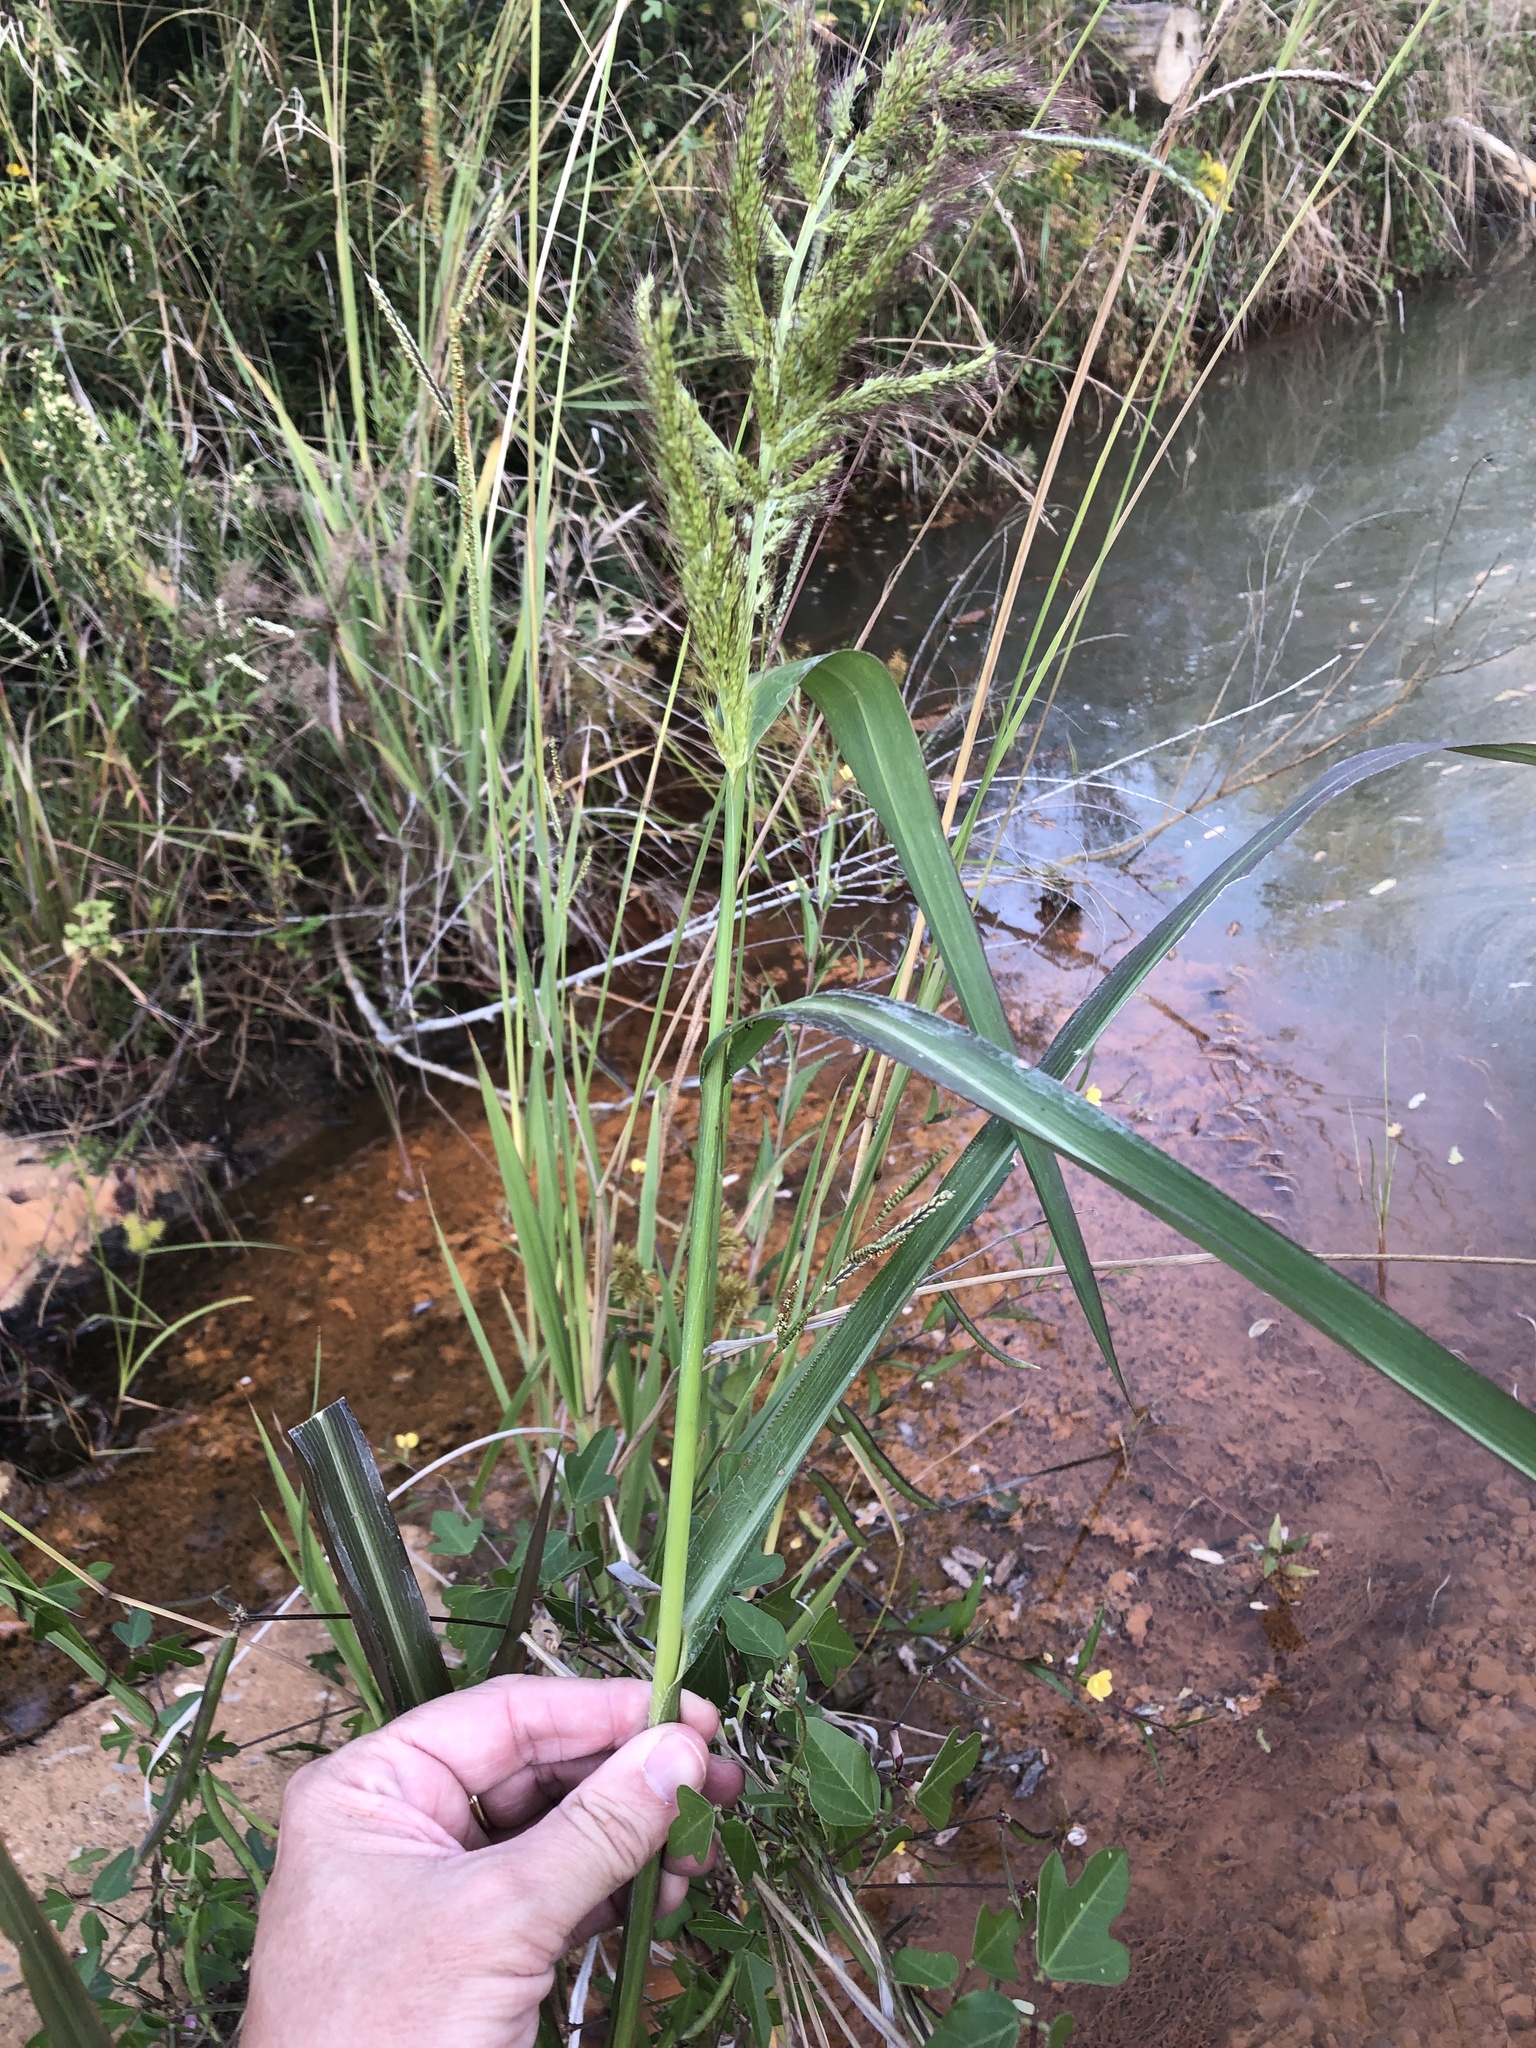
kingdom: Plantae
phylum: Tracheophyta
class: Liliopsida
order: Poales
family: Poaceae
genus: Echinochloa
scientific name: Echinochloa walteri
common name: Coast barnyard grass
